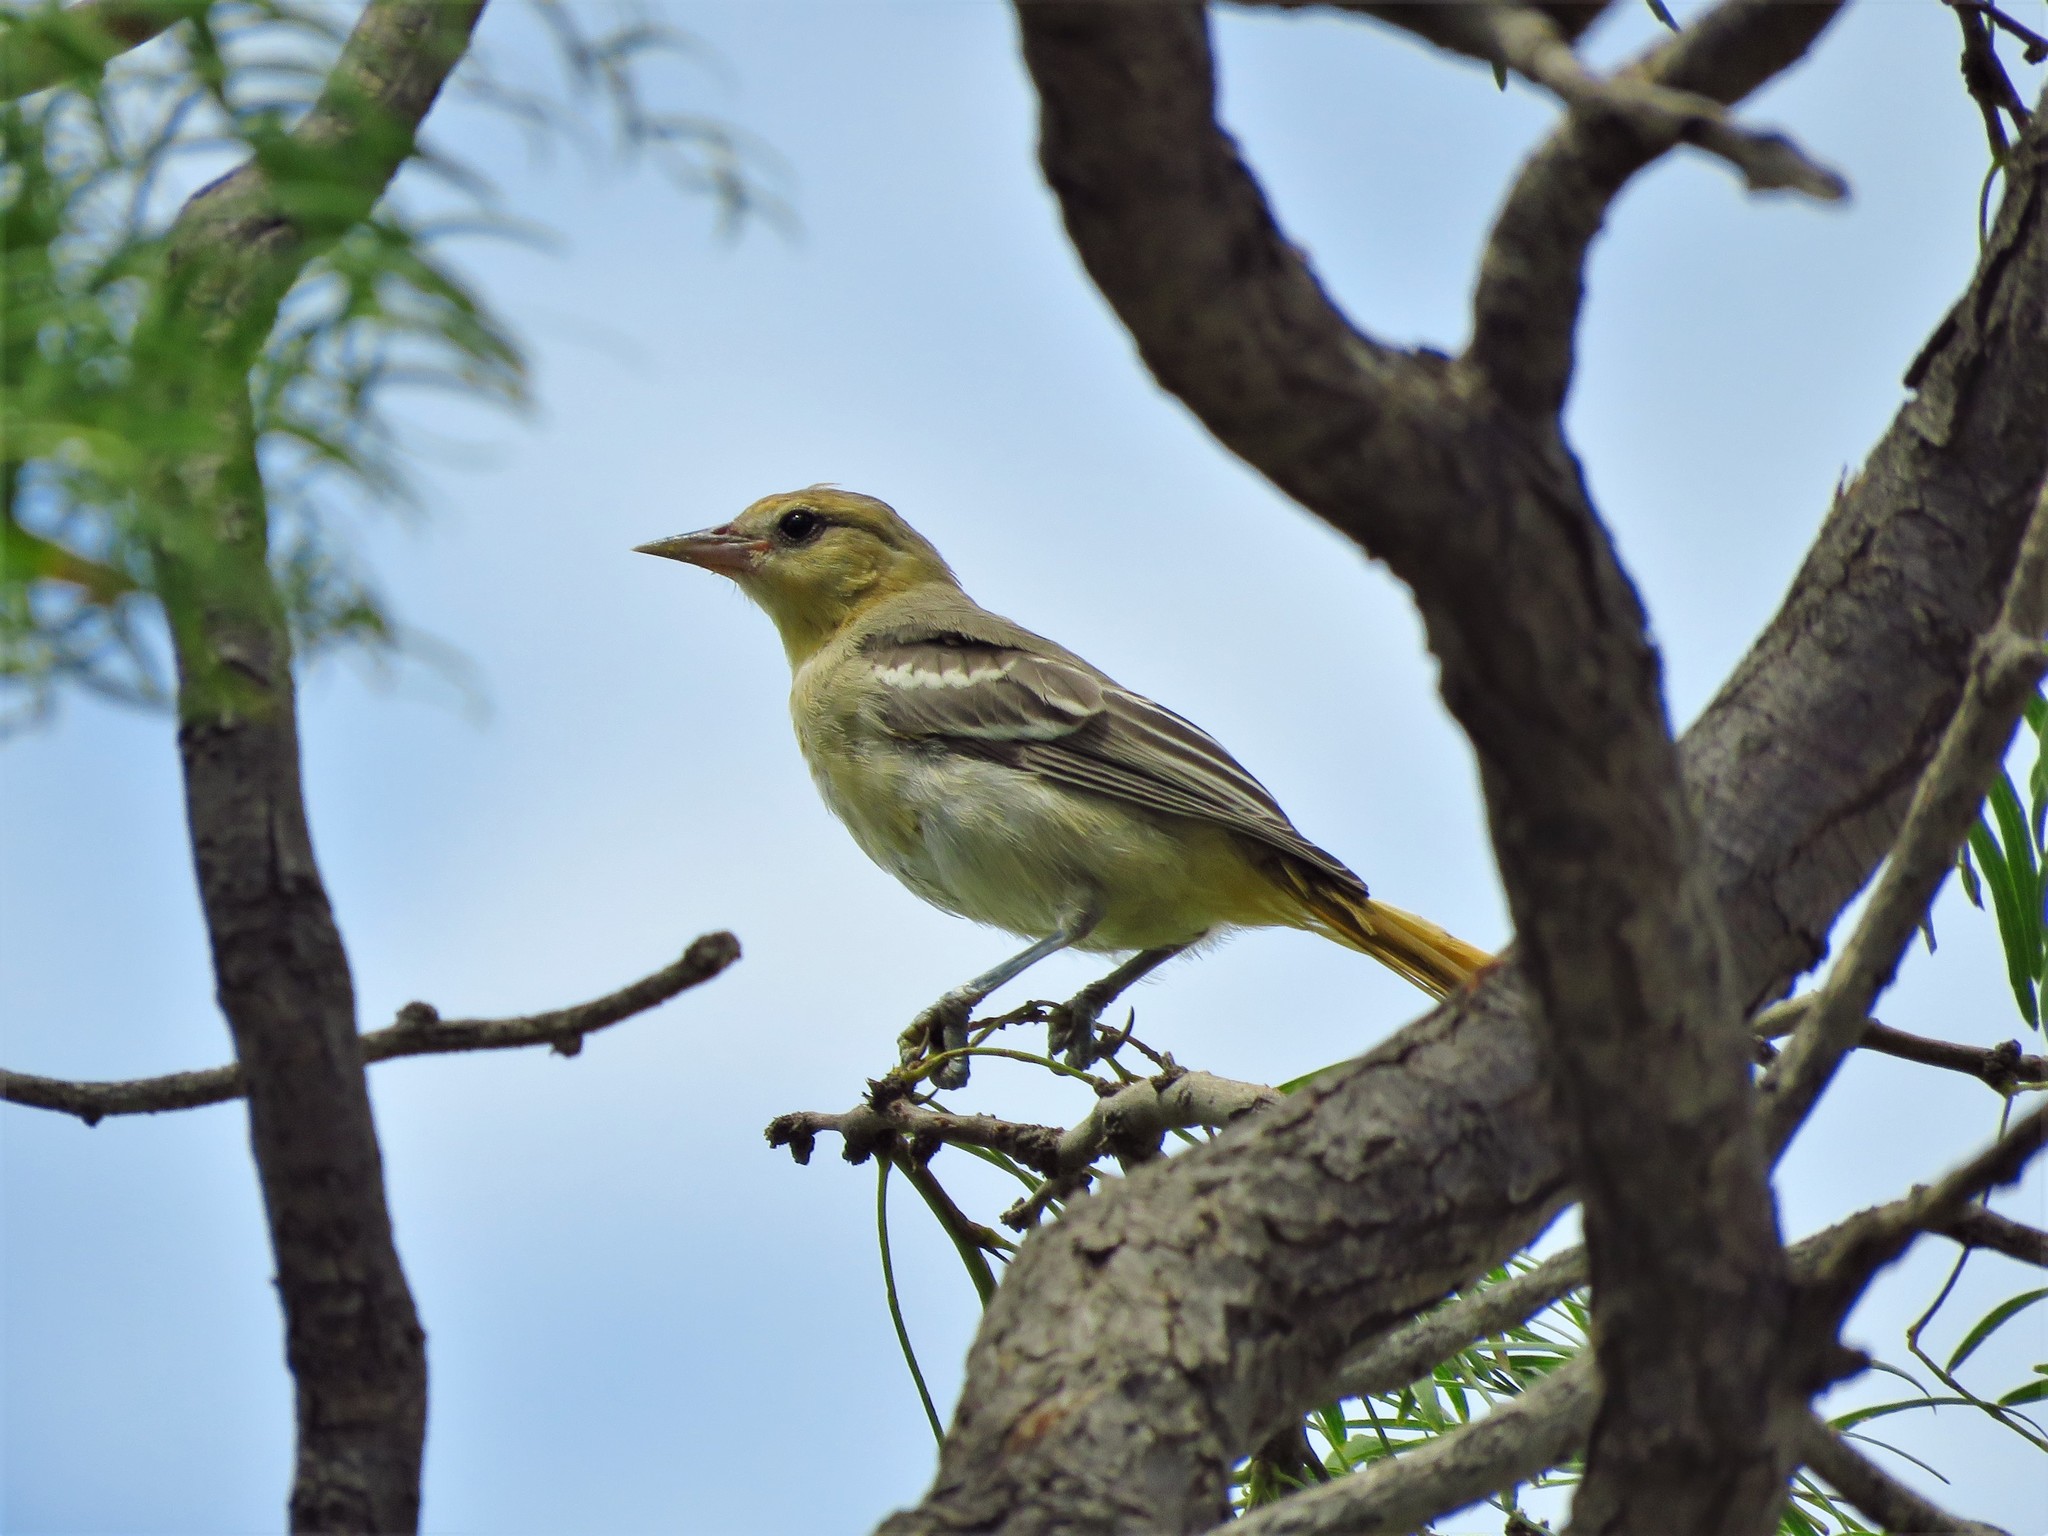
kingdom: Animalia
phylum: Chordata
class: Aves
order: Passeriformes
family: Icteridae
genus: Icterus
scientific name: Icterus bullockii
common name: Bullock's oriole
